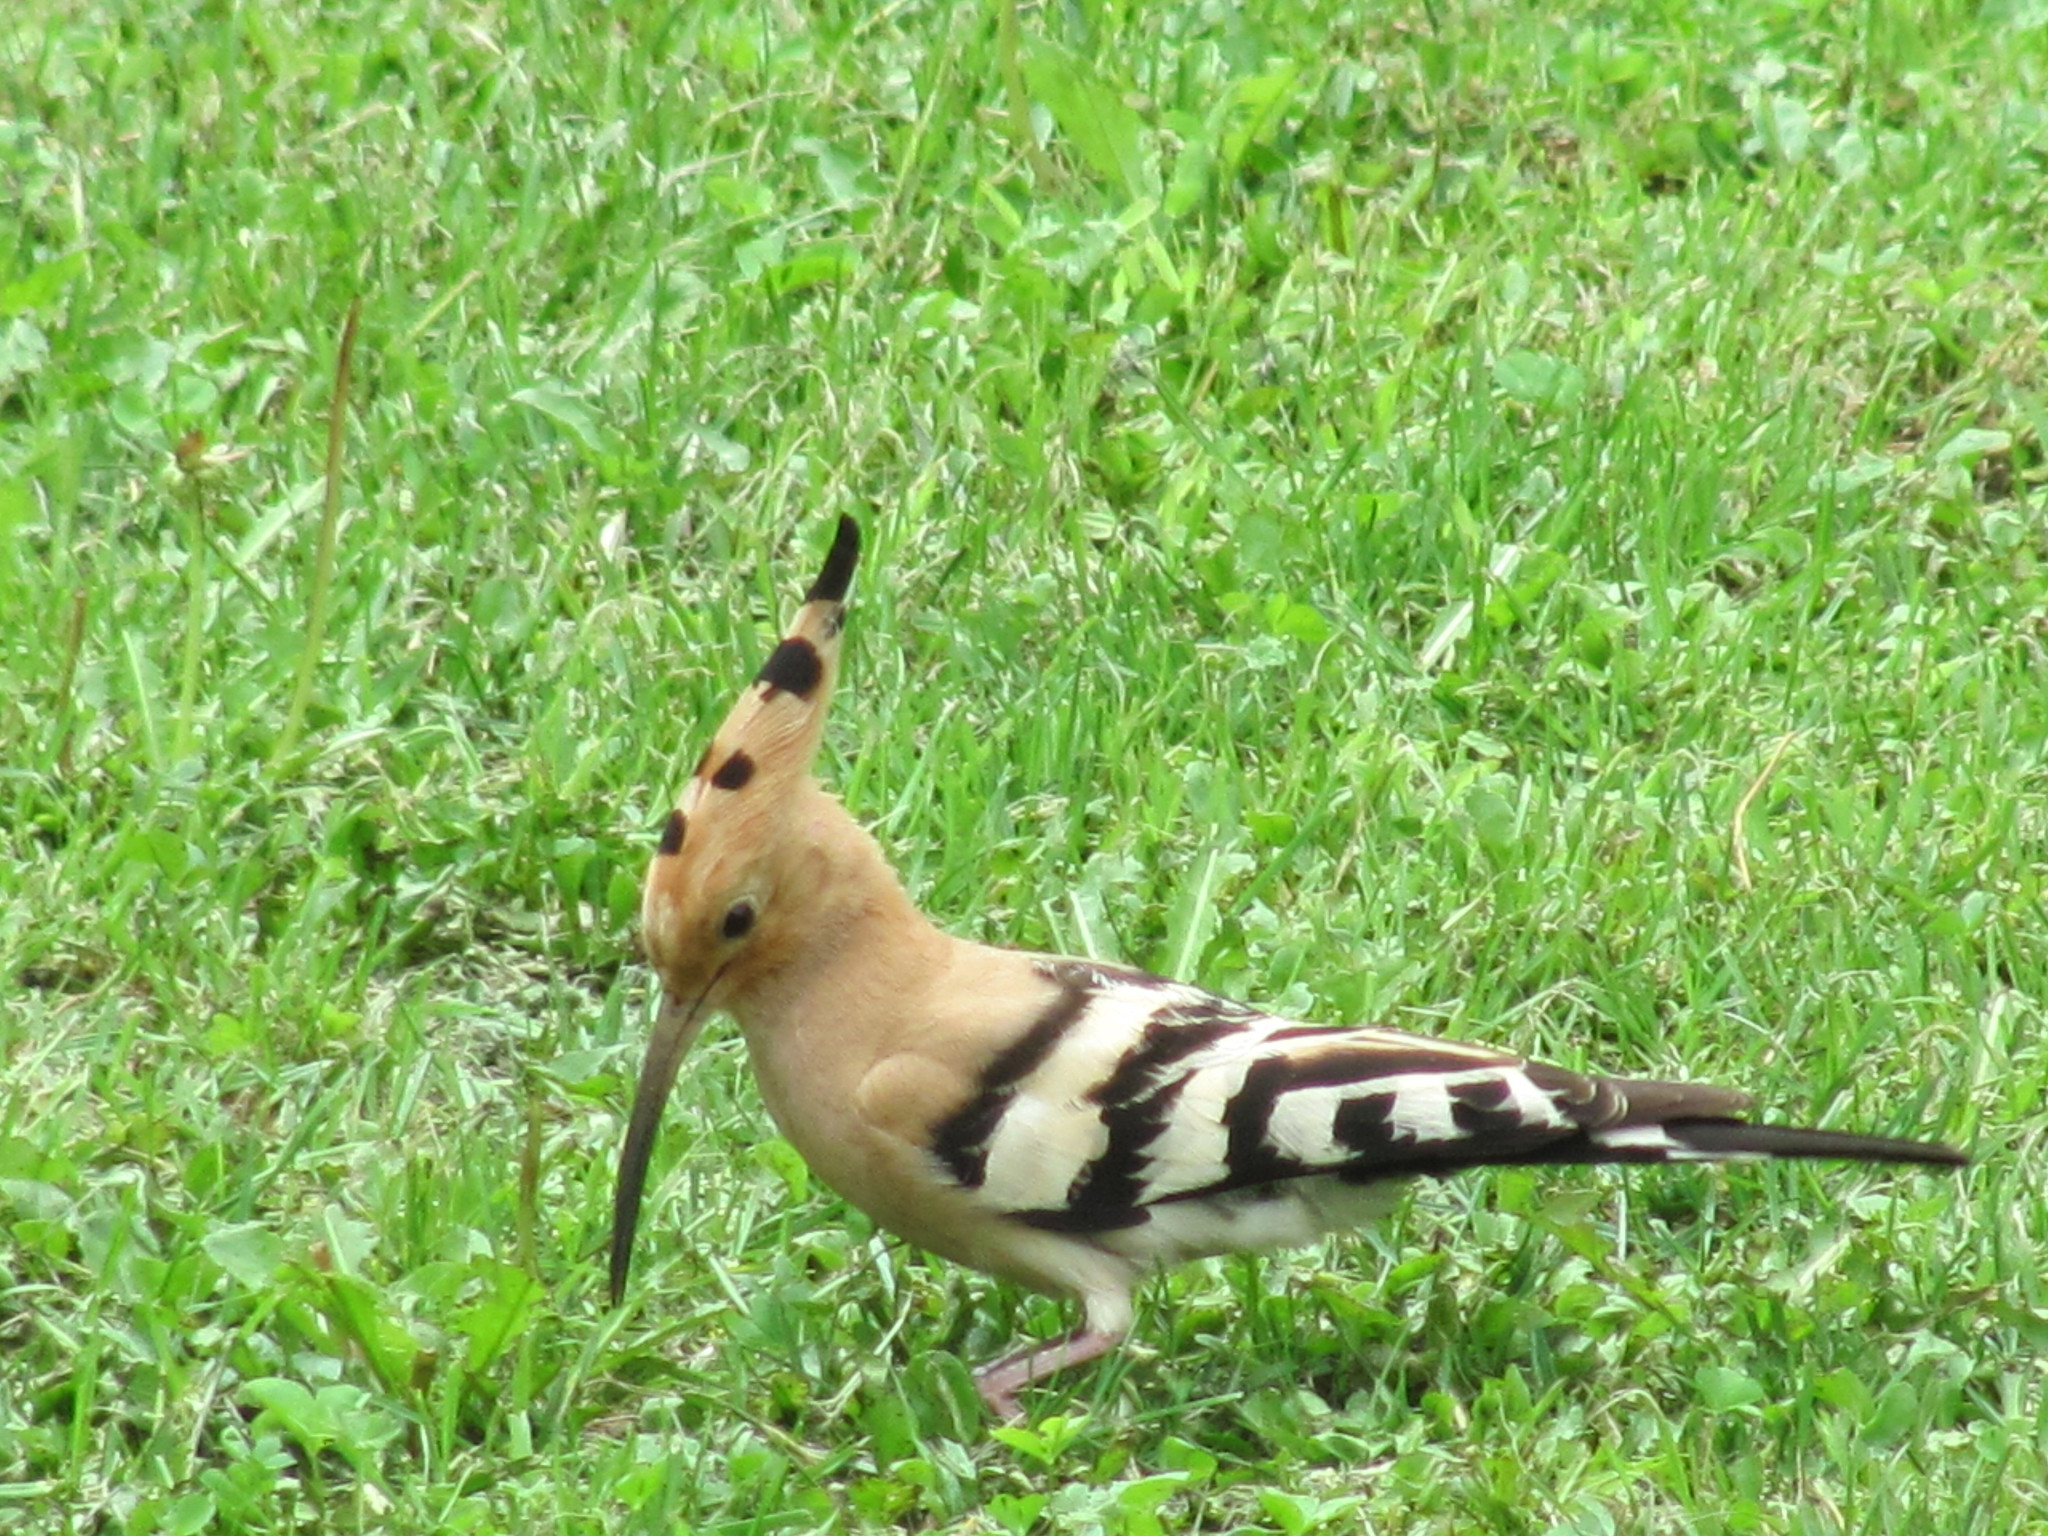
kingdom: Animalia
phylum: Chordata
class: Aves
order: Bucerotiformes
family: Upupidae
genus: Upupa
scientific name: Upupa epops
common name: Eurasian hoopoe
